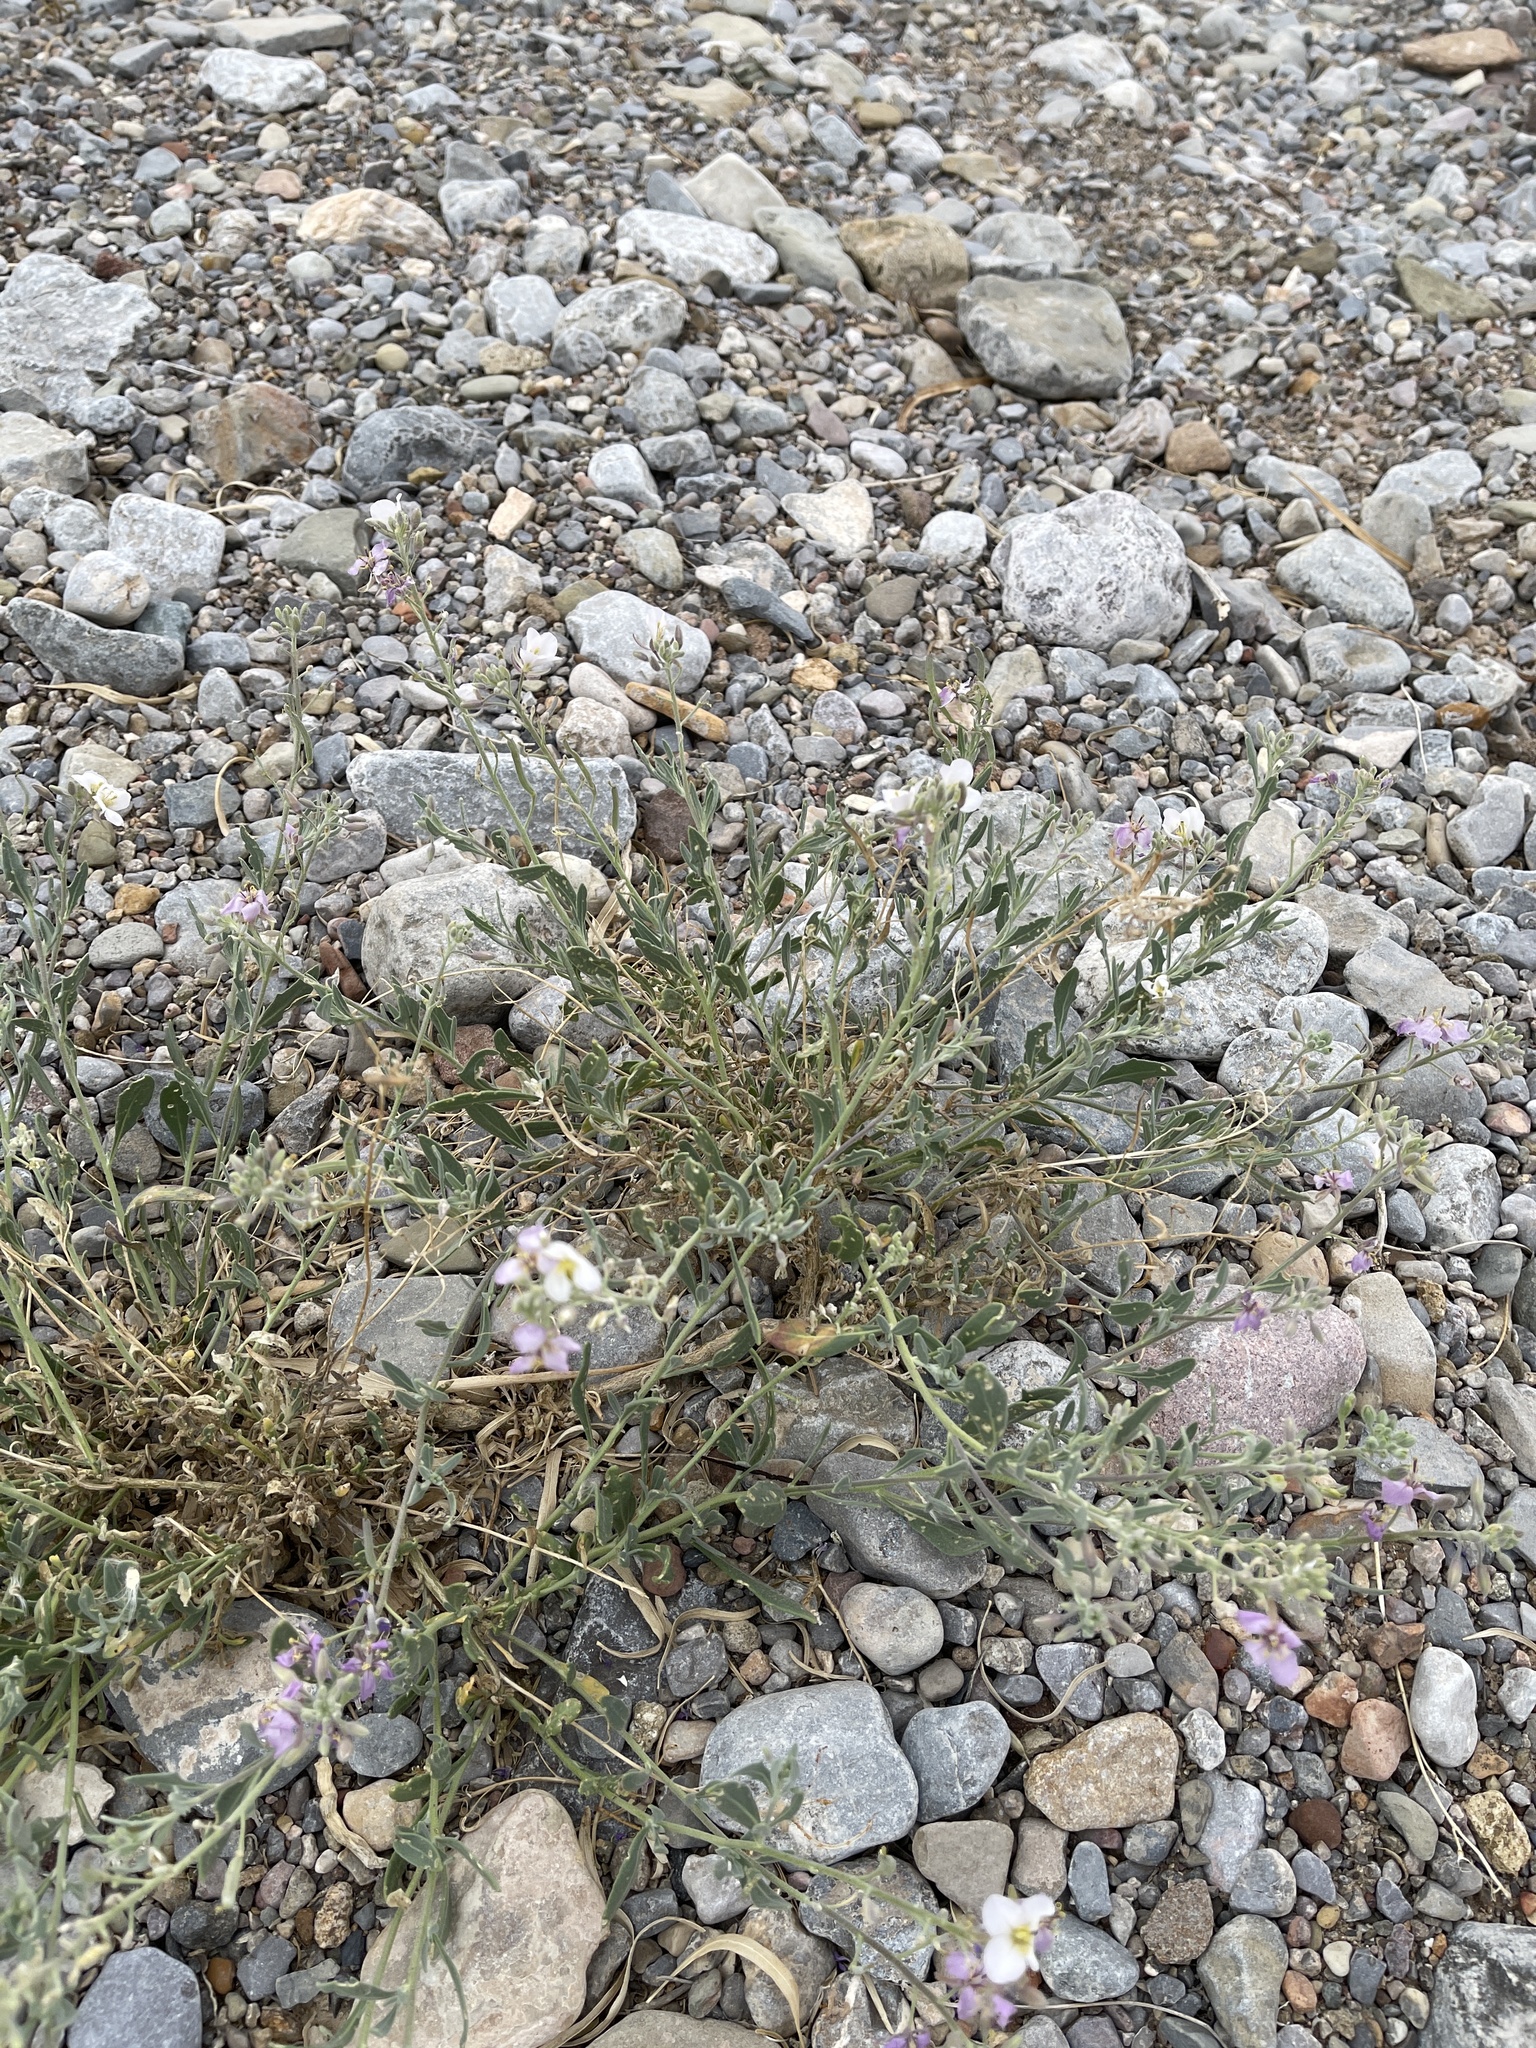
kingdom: Plantae
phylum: Tracheophyta
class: Magnoliopsida
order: Brassicales
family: Brassicaceae
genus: Nerisyrenia
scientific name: Nerisyrenia camporum
